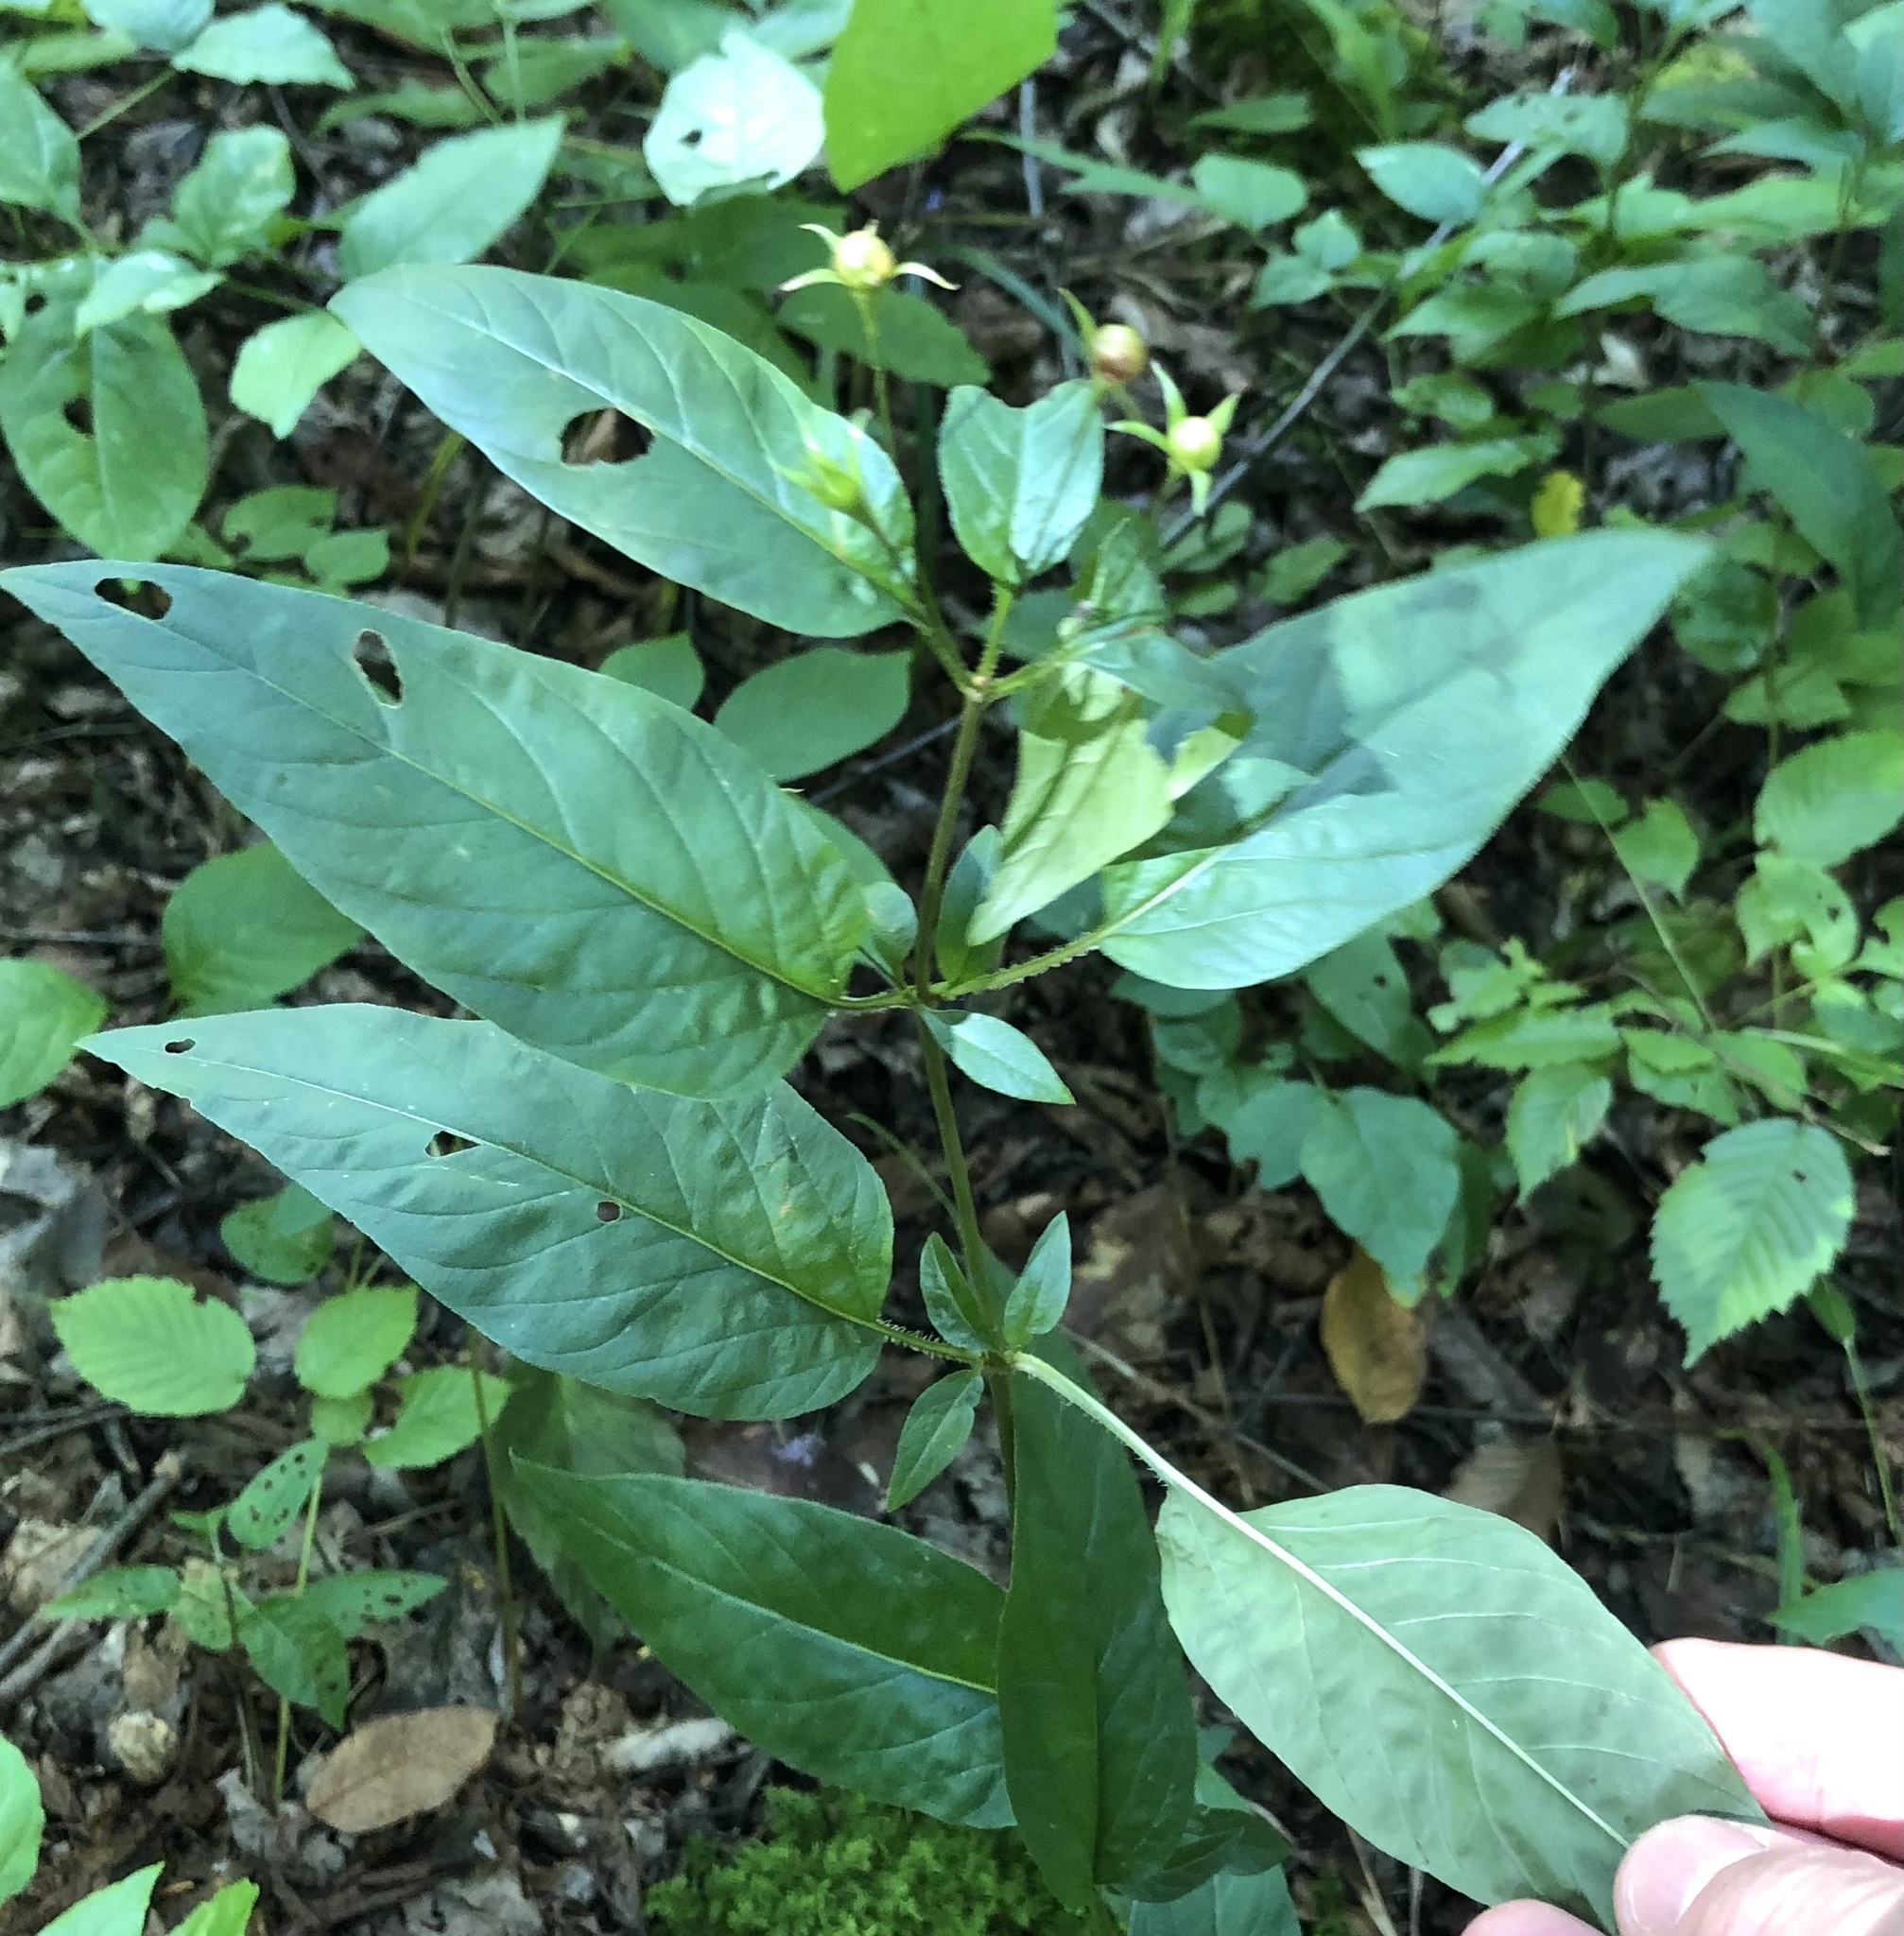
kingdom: Plantae
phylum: Tracheophyta
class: Magnoliopsida
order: Ericales
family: Primulaceae
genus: Lysimachia
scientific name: Lysimachia ciliata
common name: Fringed loosestrife
